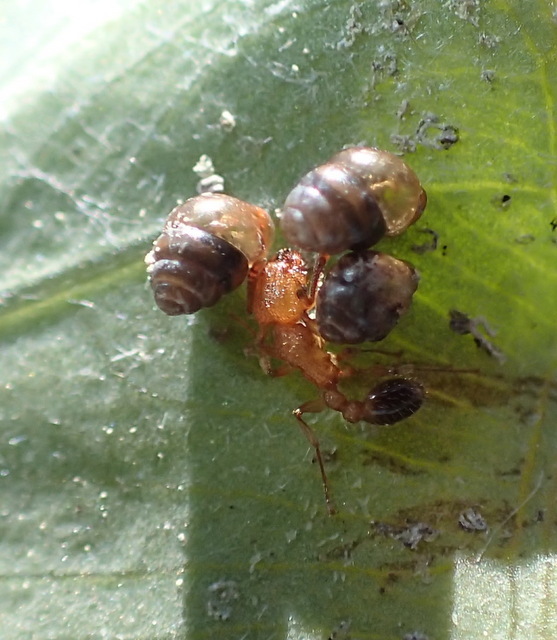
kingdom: Animalia
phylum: Arthropoda
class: Insecta
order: Hymenoptera
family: Formicidae
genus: Tetramorium
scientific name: Tetramorium bicarinatum
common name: Guinea ant
